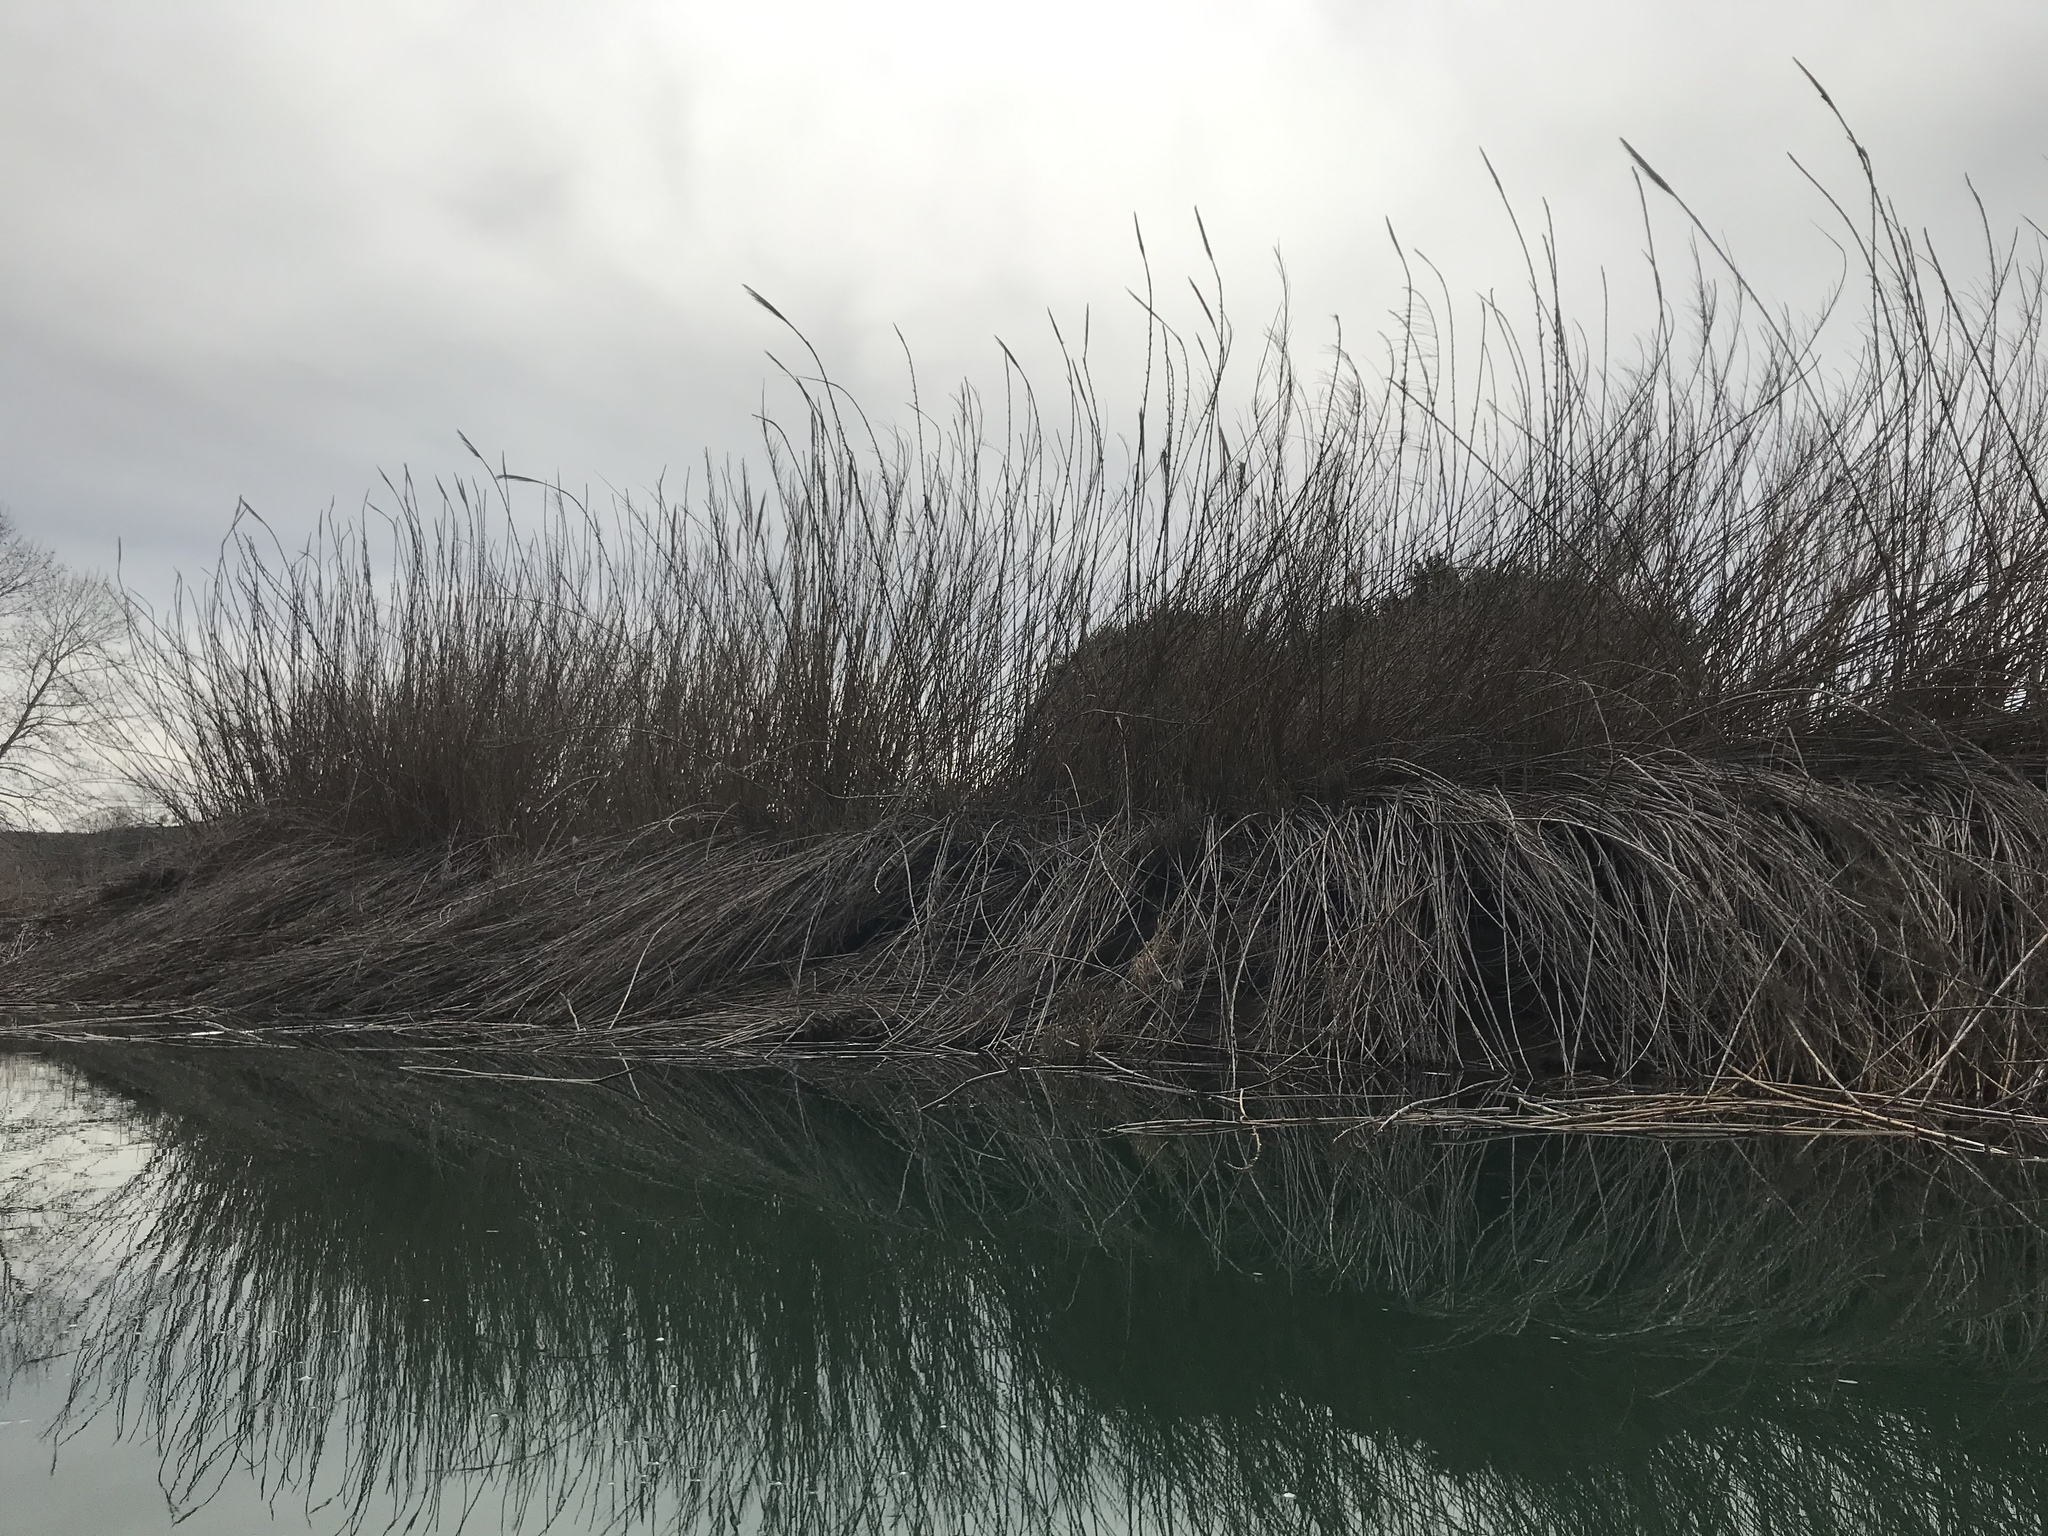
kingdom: Plantae
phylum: Tracheophyta
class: Liliopsida
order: Poales
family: Poaceae
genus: Arundo
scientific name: Arundo donax
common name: Giant reed
